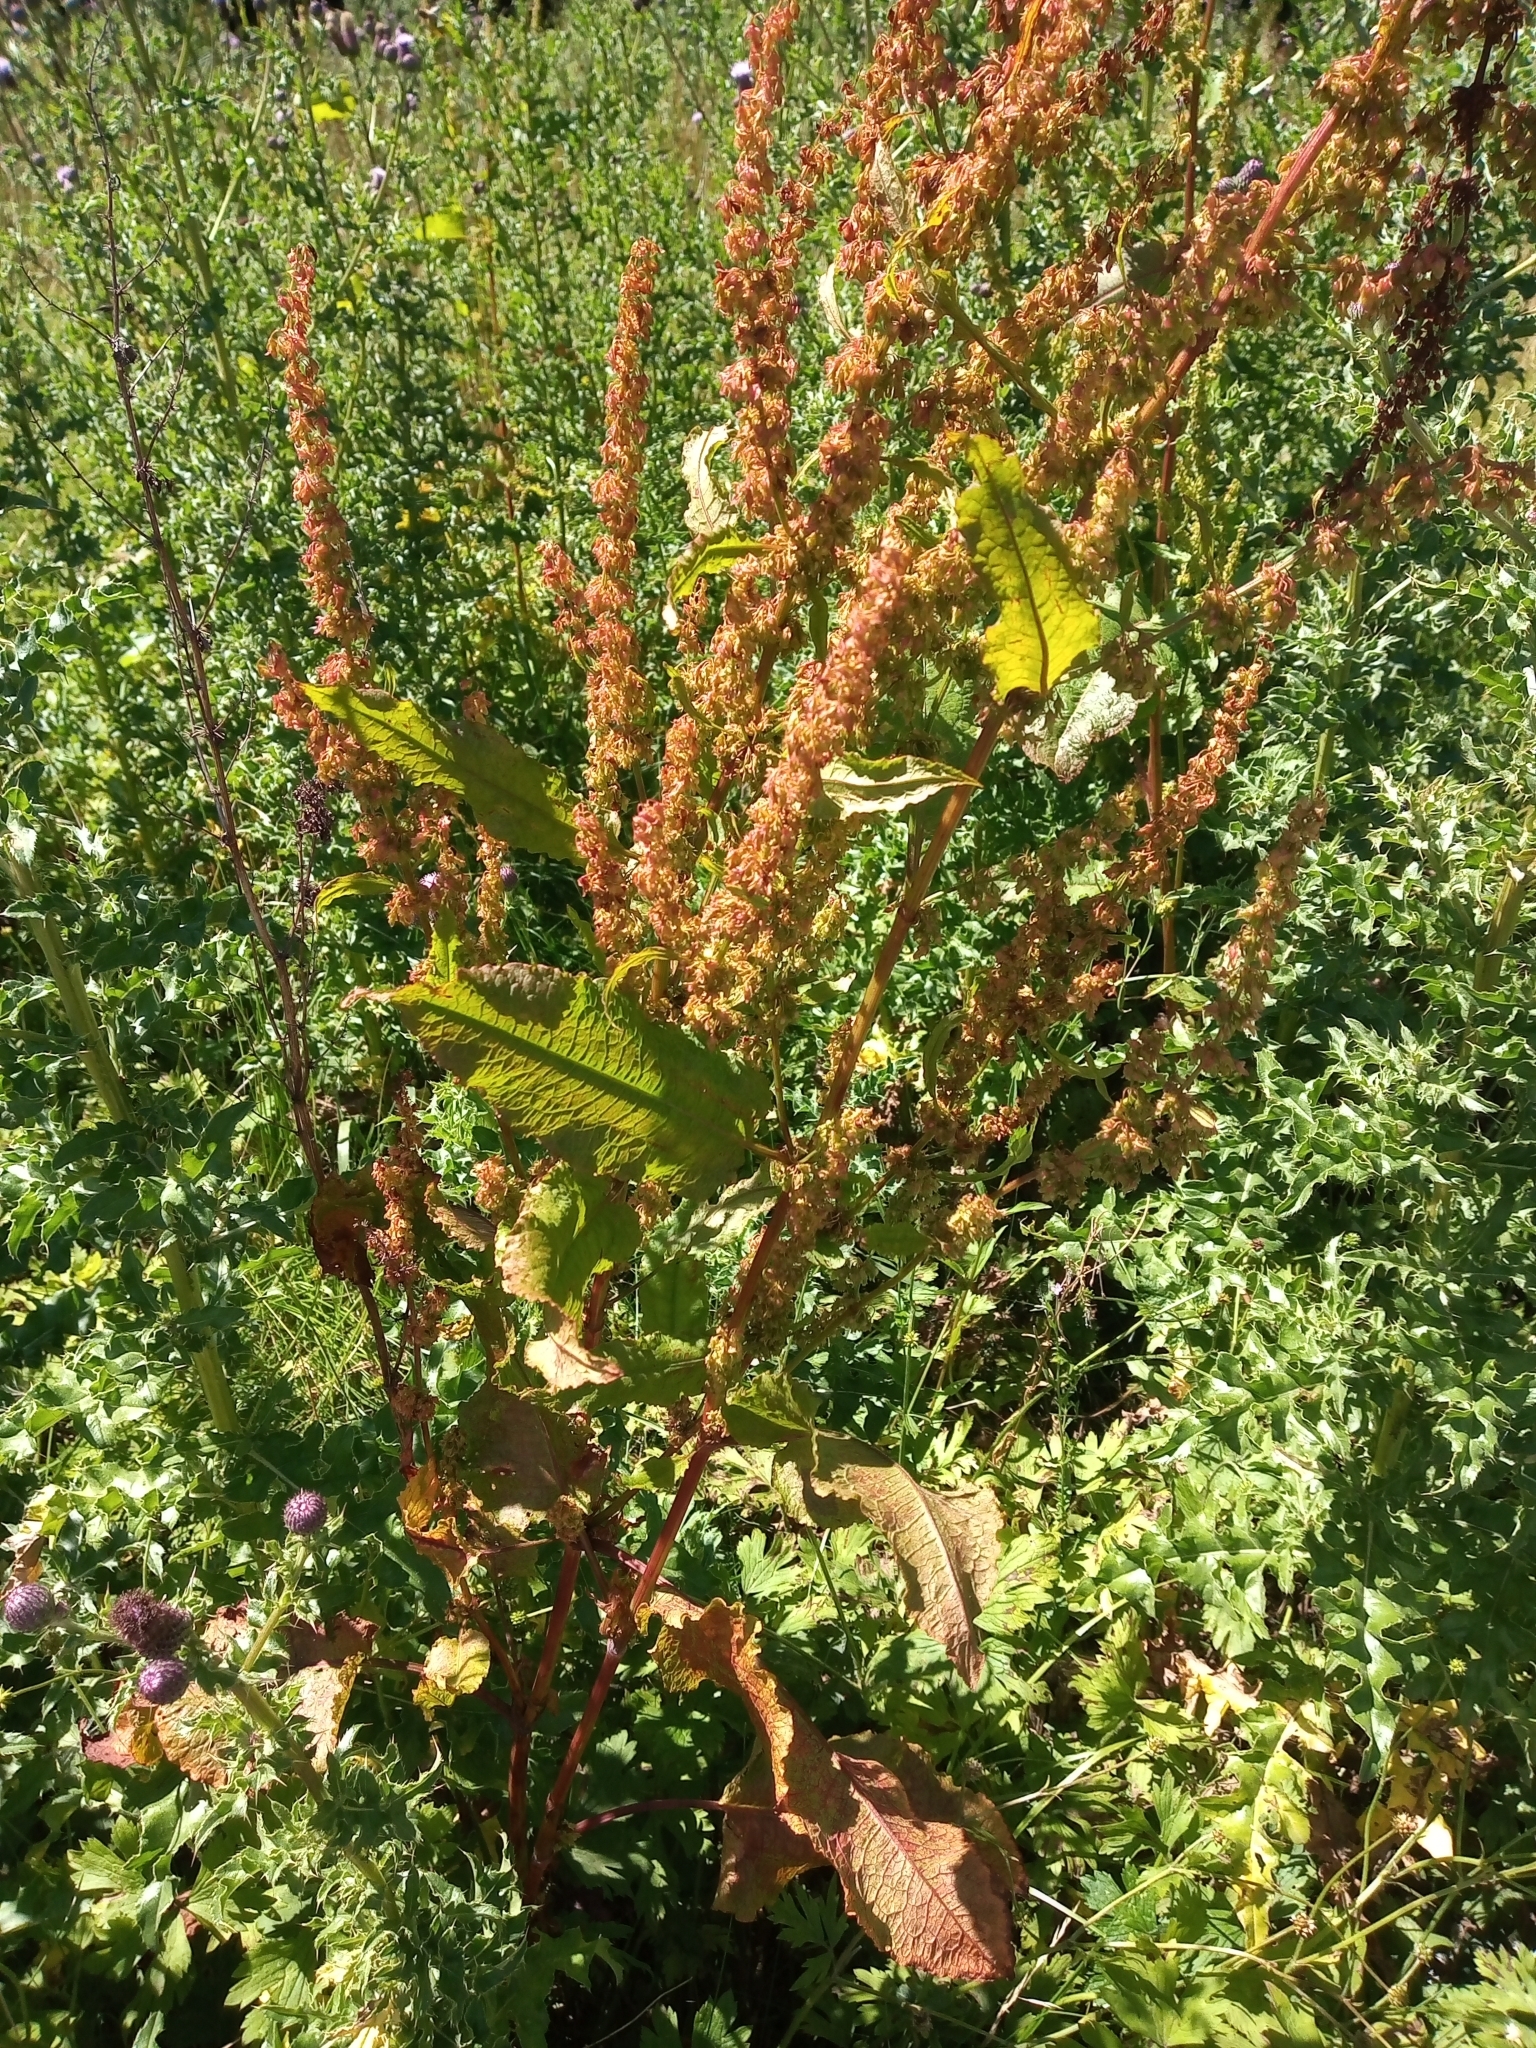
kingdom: Plantae
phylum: Tracheophyta
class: Magnoliopsida
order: Caryophyllales
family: Polygonaceae
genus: Rumex
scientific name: Rumex acutus
